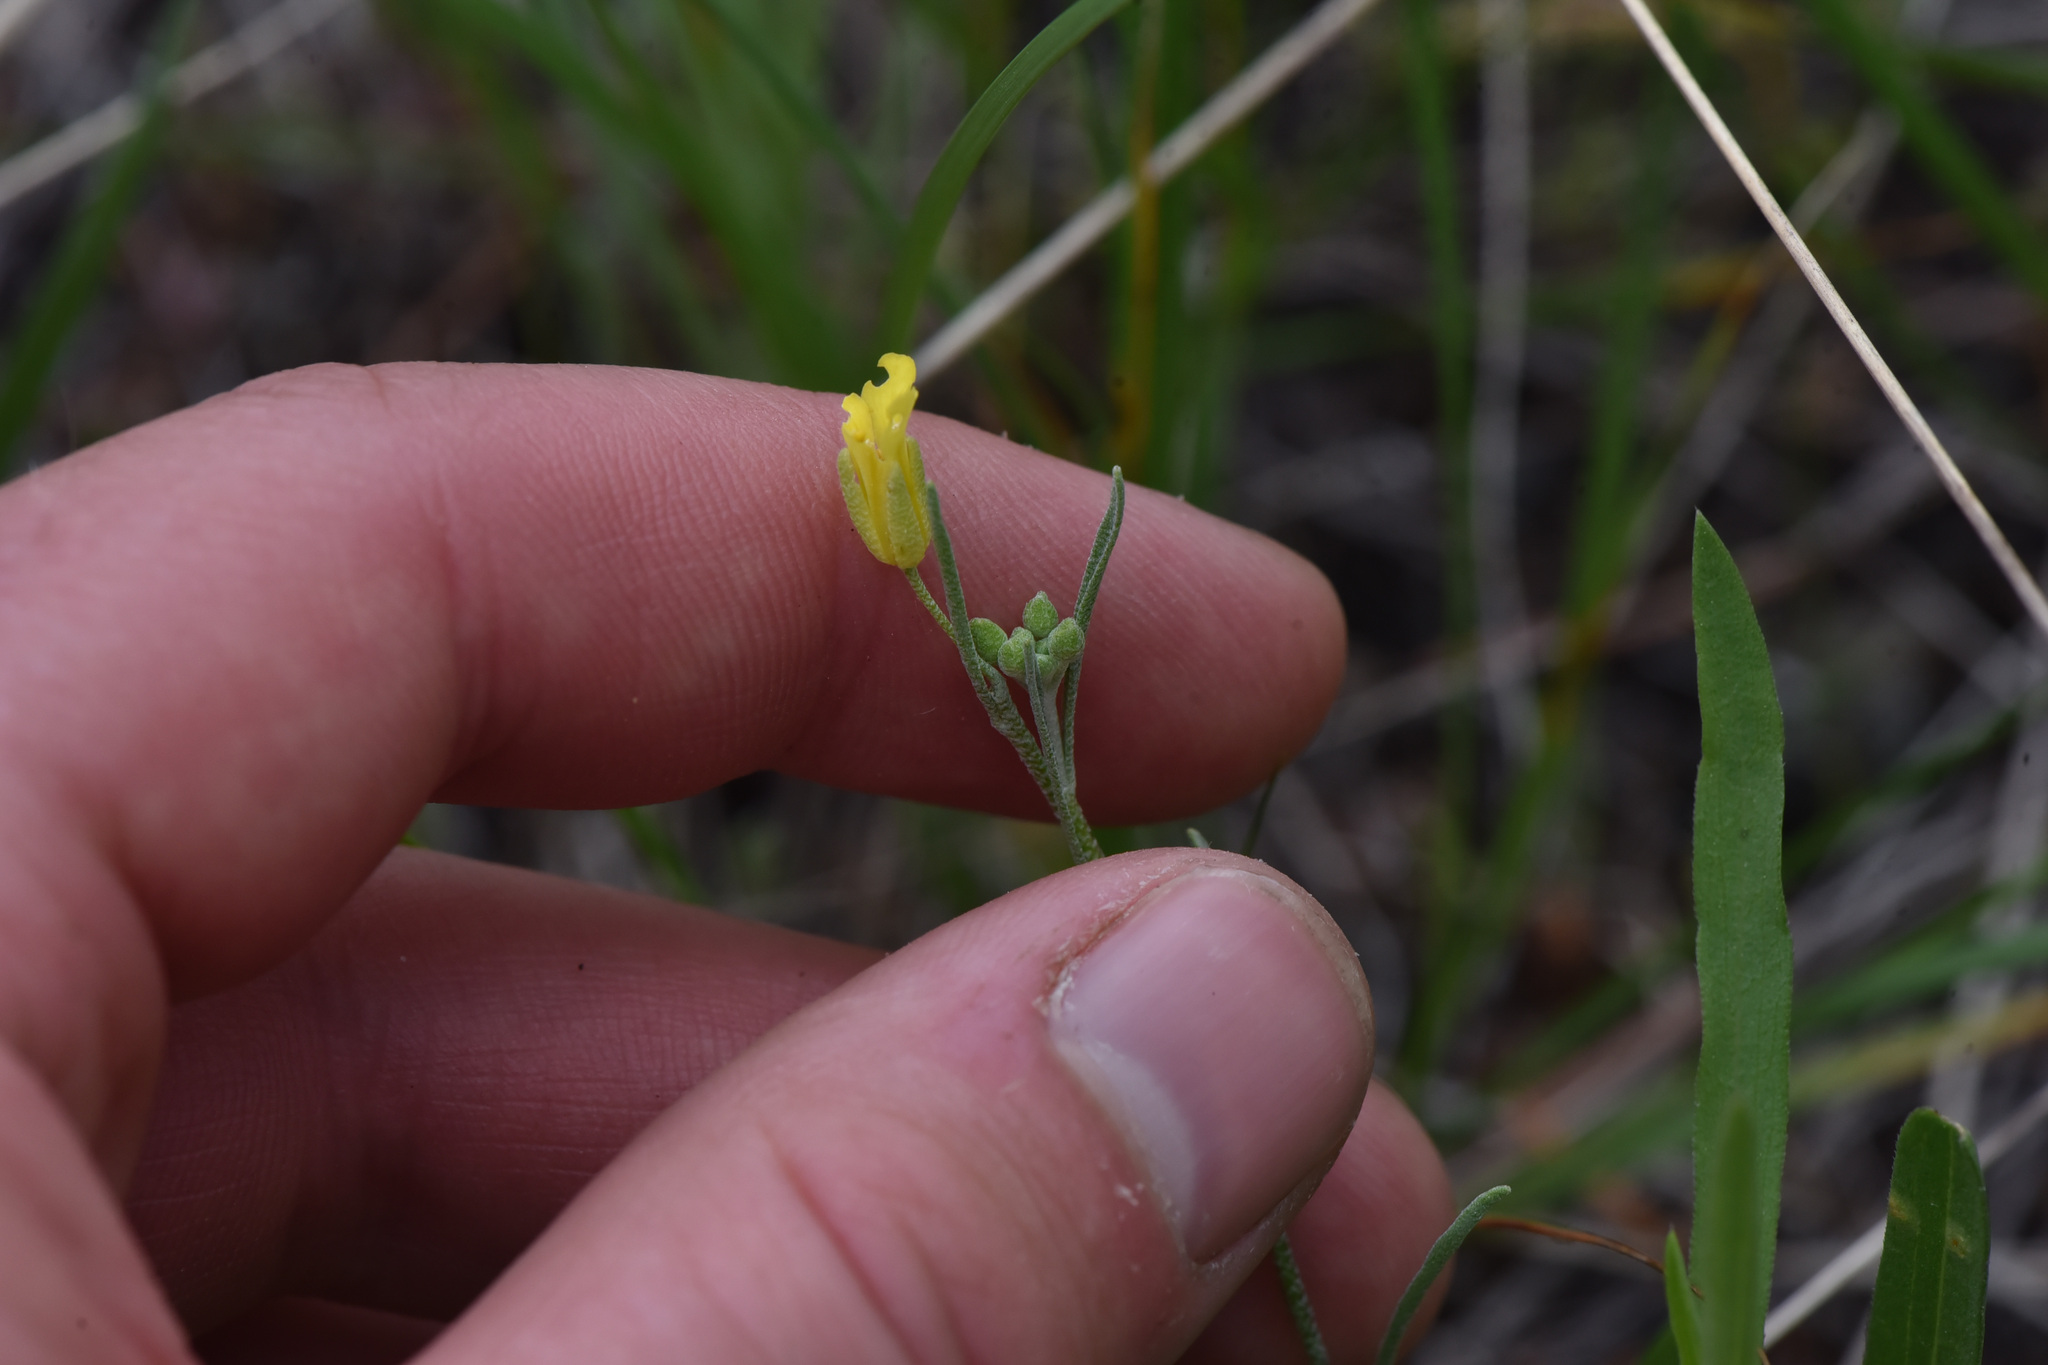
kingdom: Plantae
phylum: Tracheophyta
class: Magnoliopsida
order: Brassicales
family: Brassicaceae
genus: Physaria
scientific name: Physaria douglasii
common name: Douglas's bladderpod
